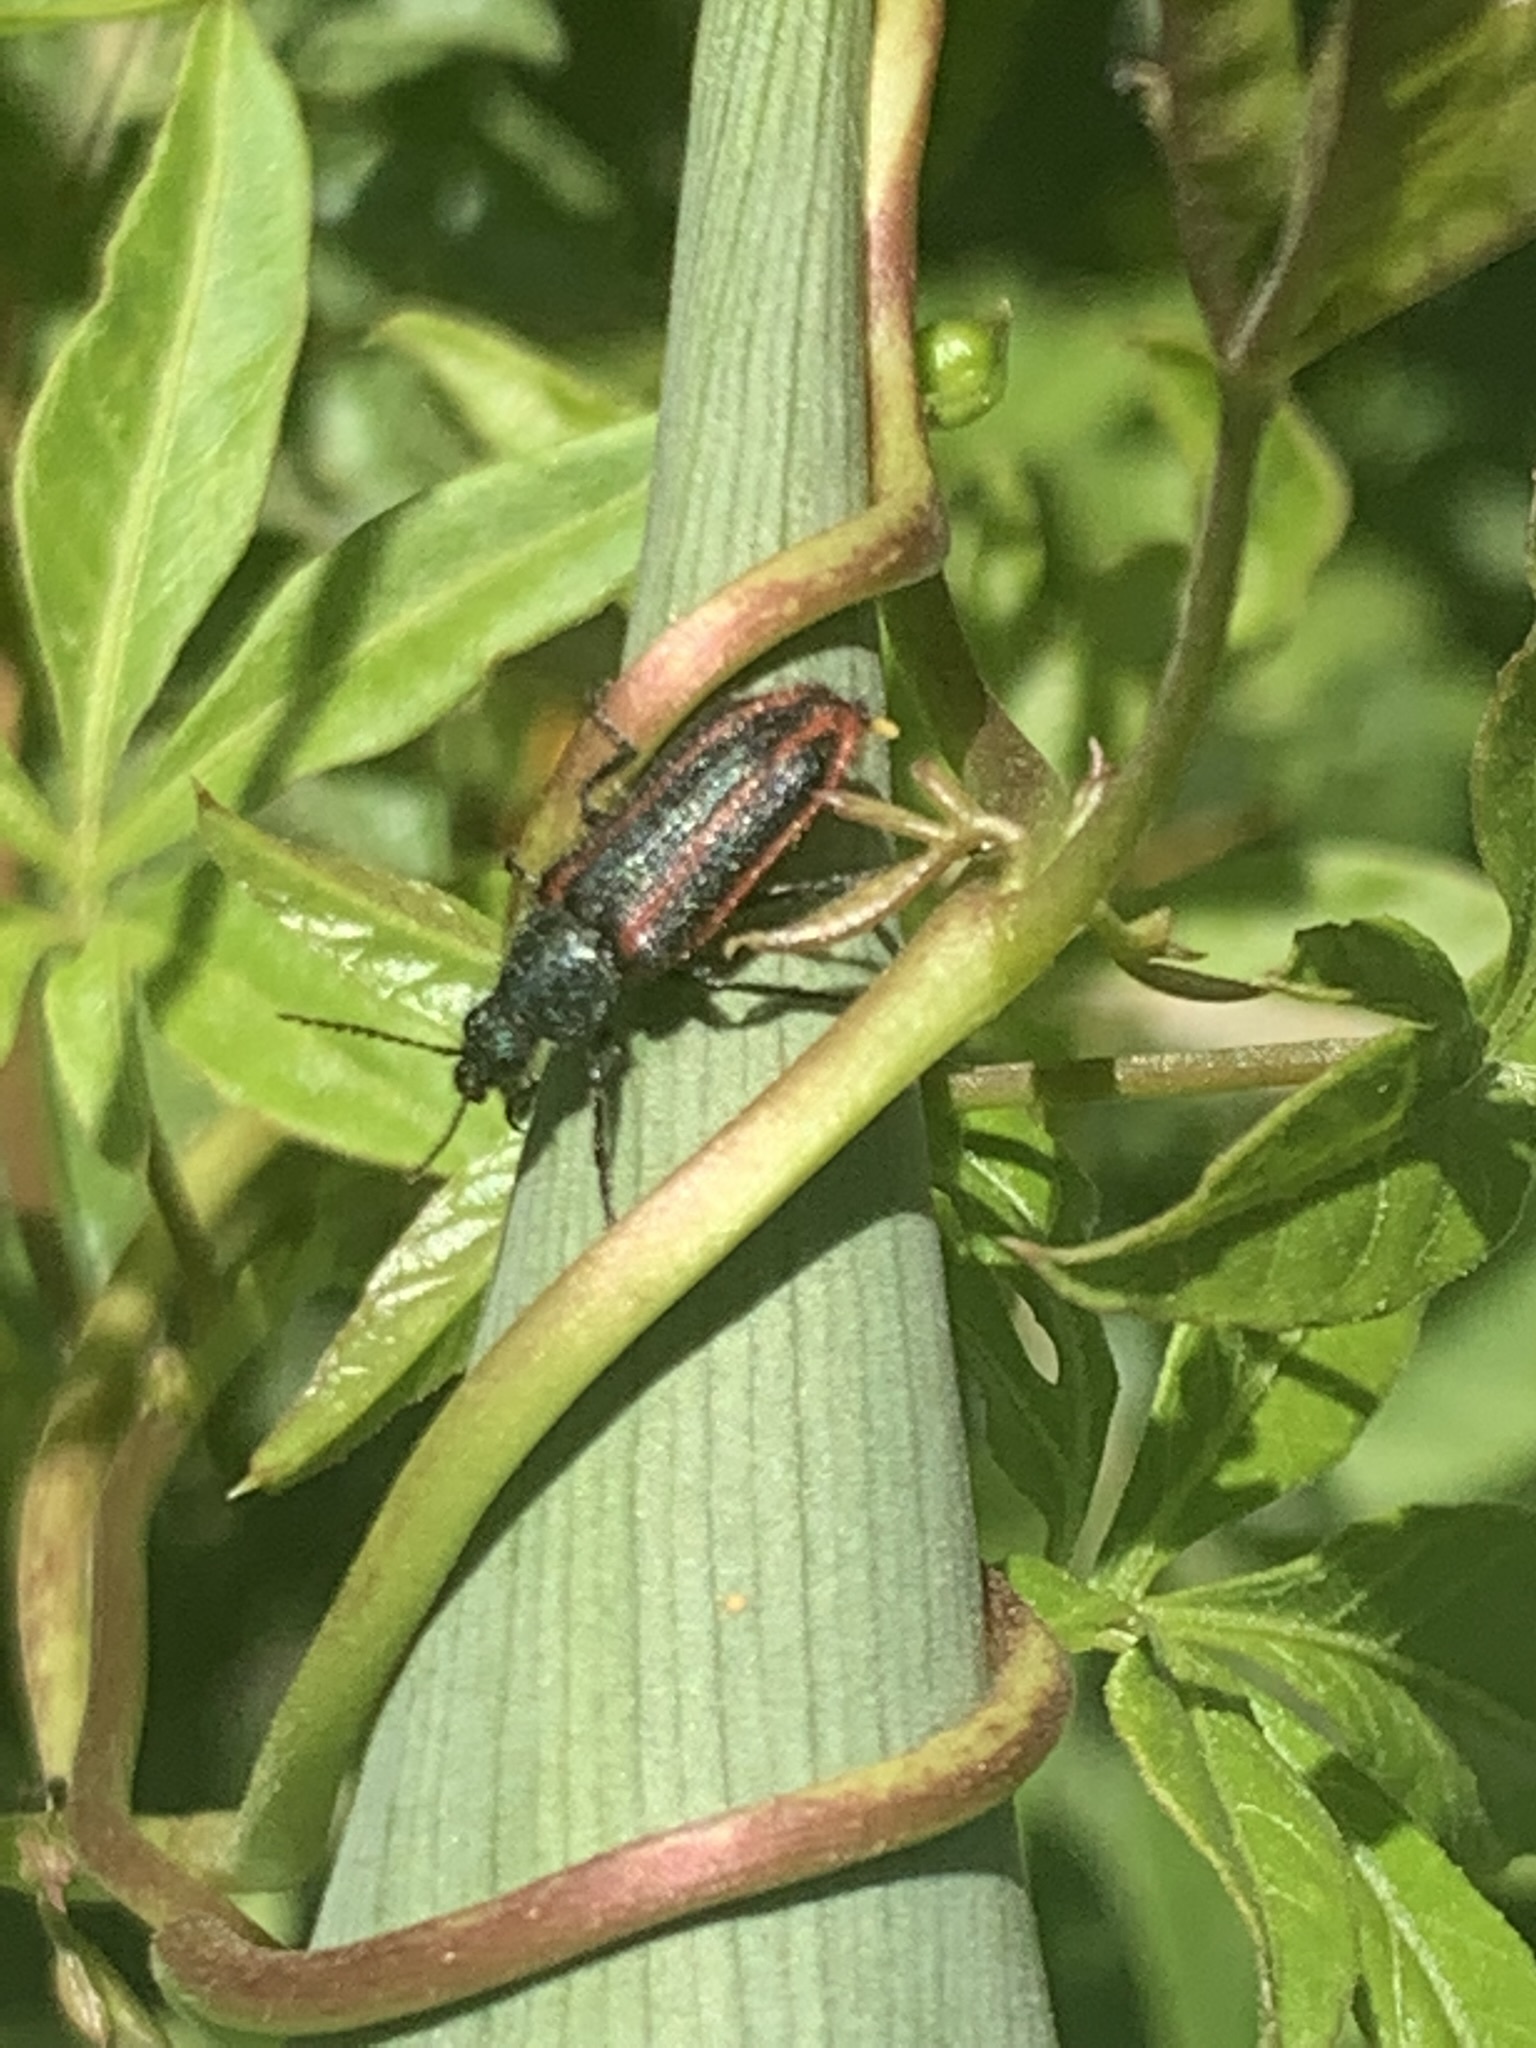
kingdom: Animalia
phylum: Arthropoda
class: Insecta
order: Coleoptera
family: Melyridae
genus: Astylus
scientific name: Astylus
